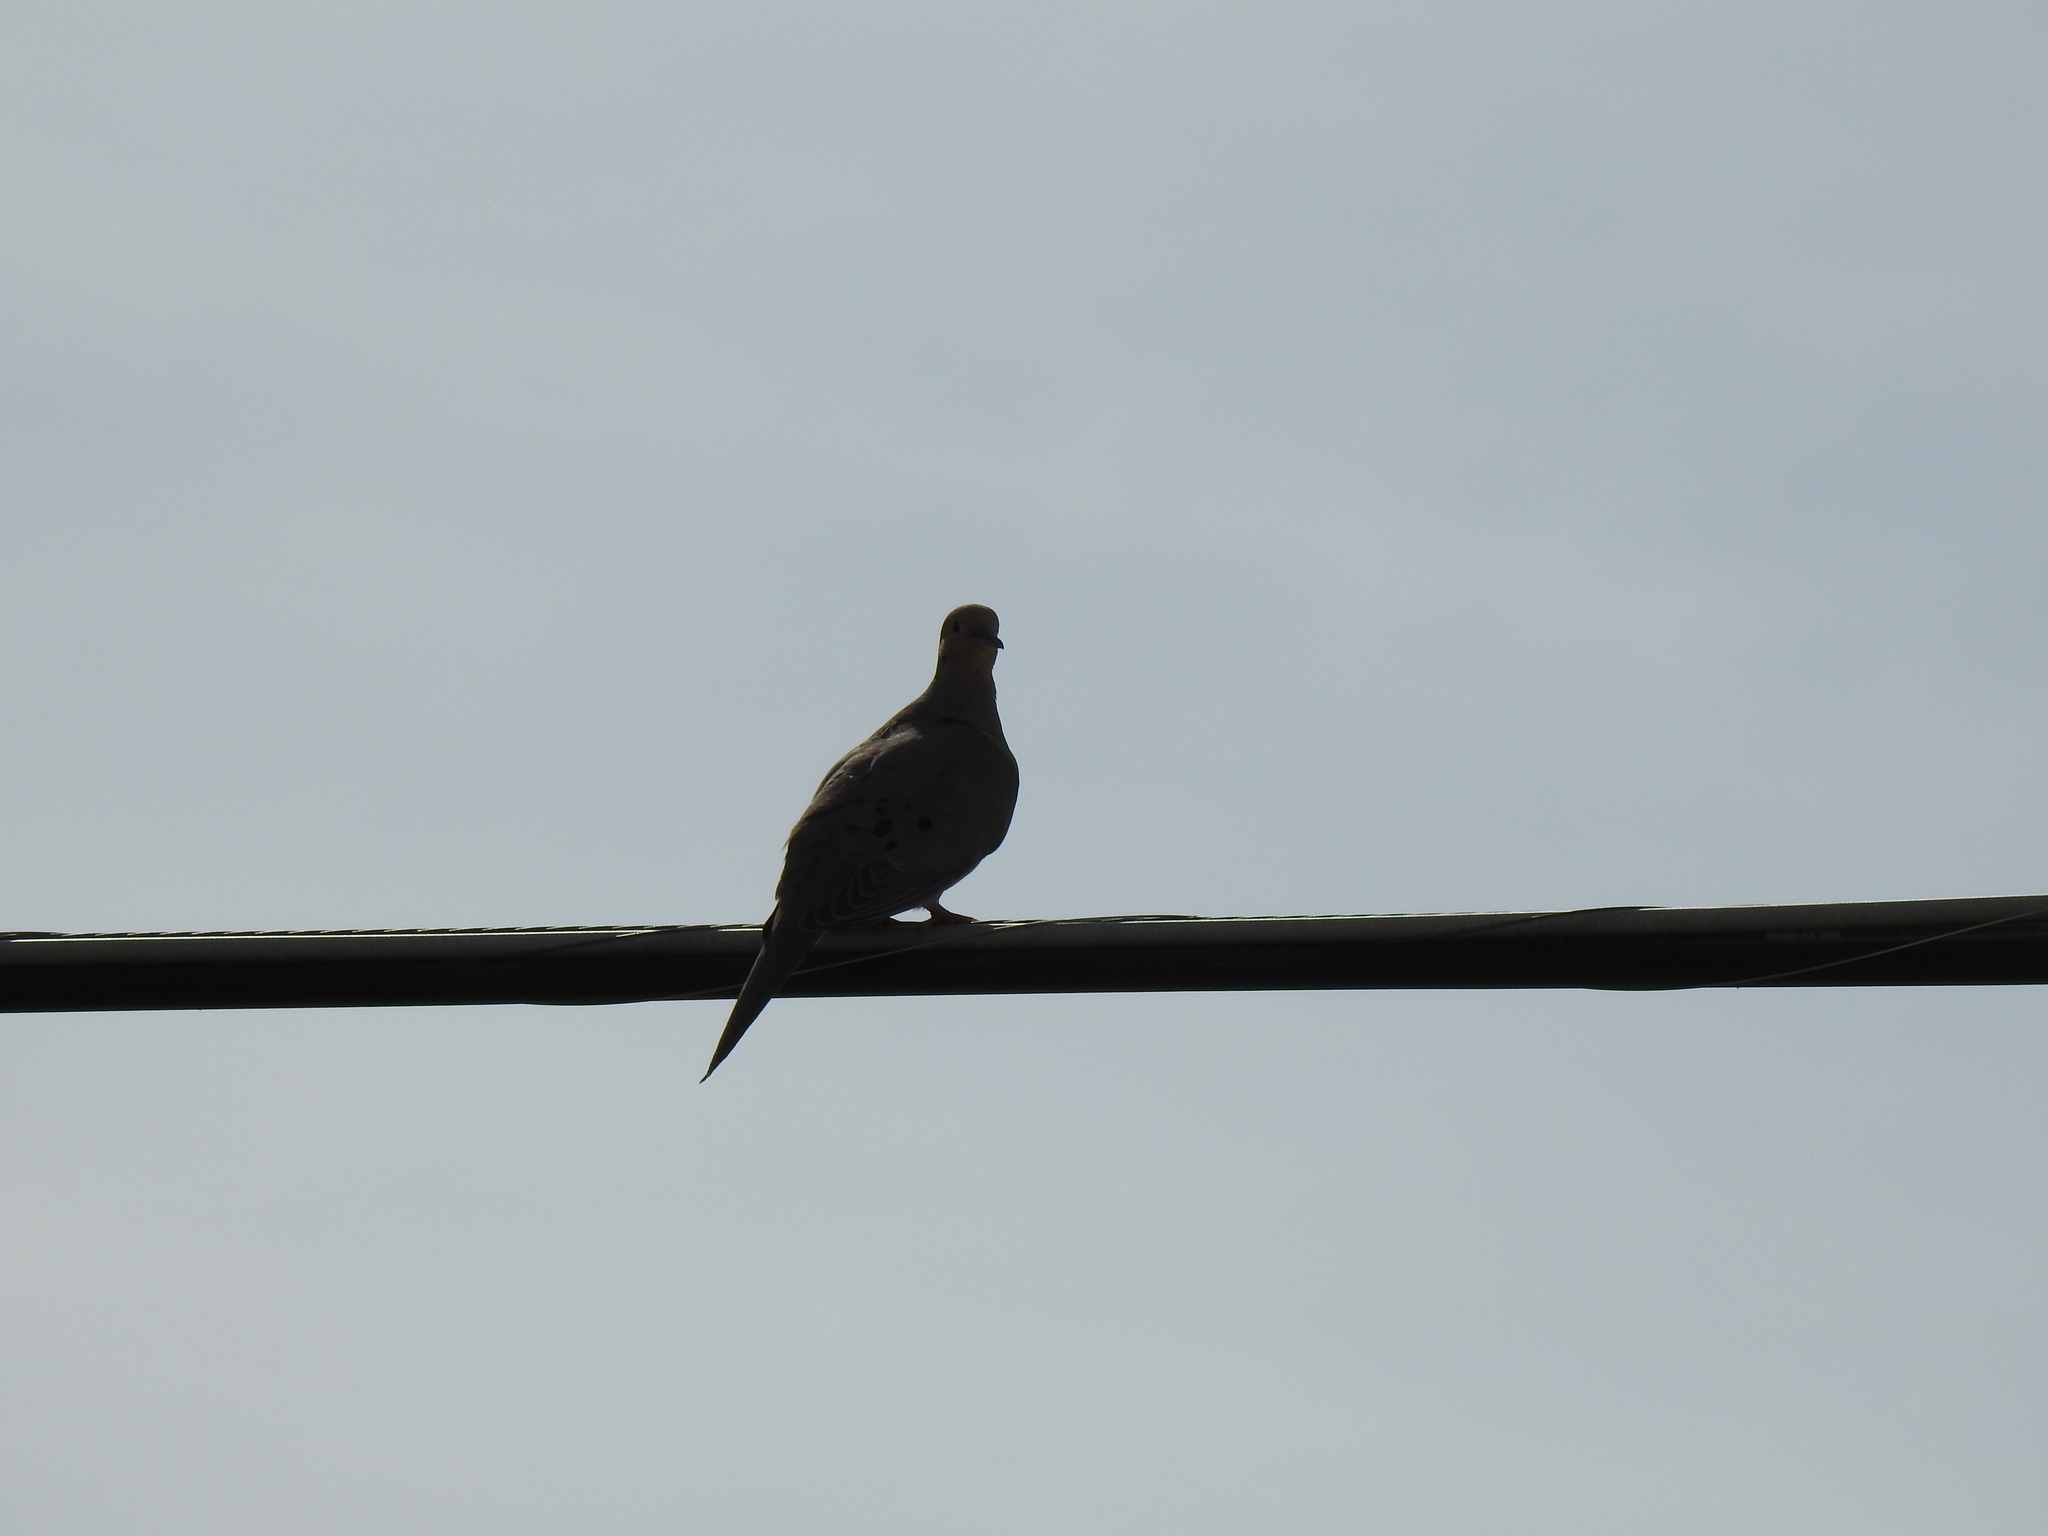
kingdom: Animalia
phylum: Chordata
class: Aves
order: Columbiformes
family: Columbidae
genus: Zenaida
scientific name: Zenaida macroura
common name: Mourning dove
